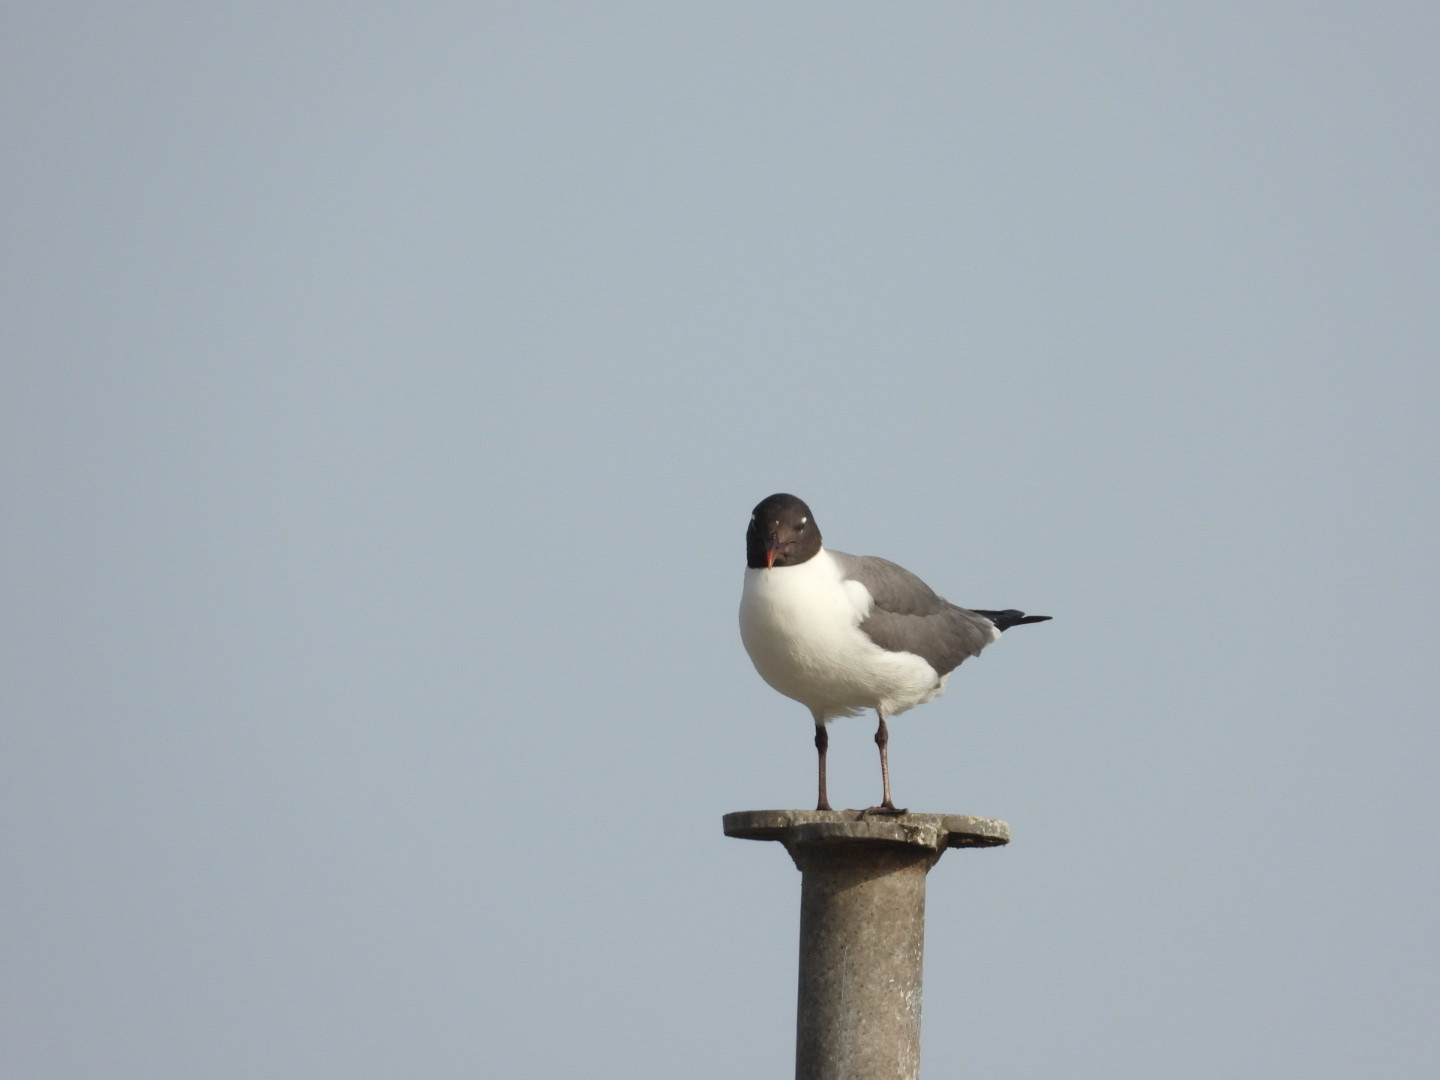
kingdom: Animalia
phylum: Chordata
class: Aves
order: Charadriiformes
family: Laridae
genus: Leucophaeus
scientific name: Leucophaeus atricilla
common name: Laughing gull
